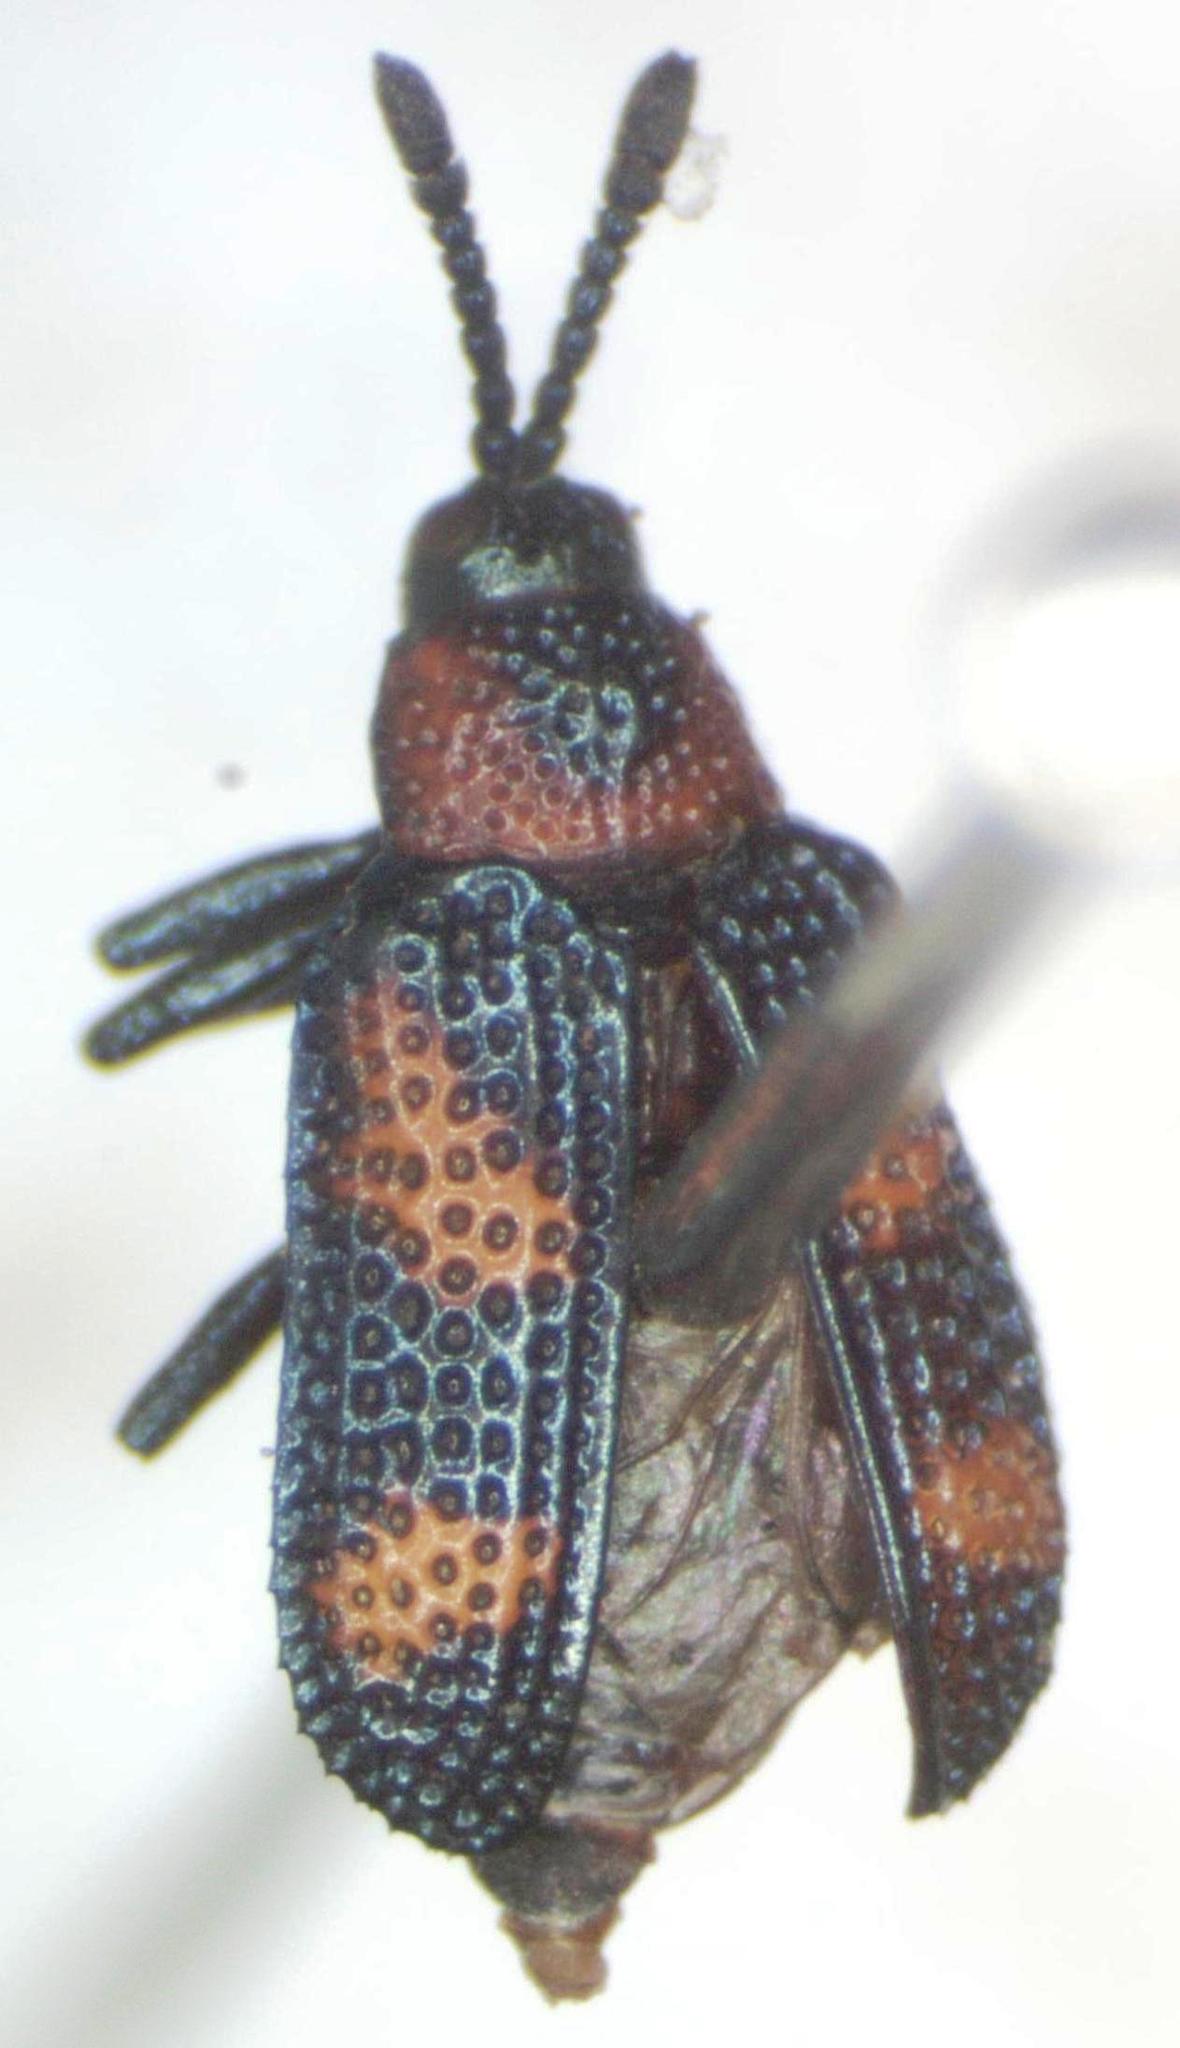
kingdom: Animalia
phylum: Arthropoda
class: Insecta
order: Coleoptera
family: Chrysomelidae
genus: Microrhopala
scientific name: Microrhopala perforata
